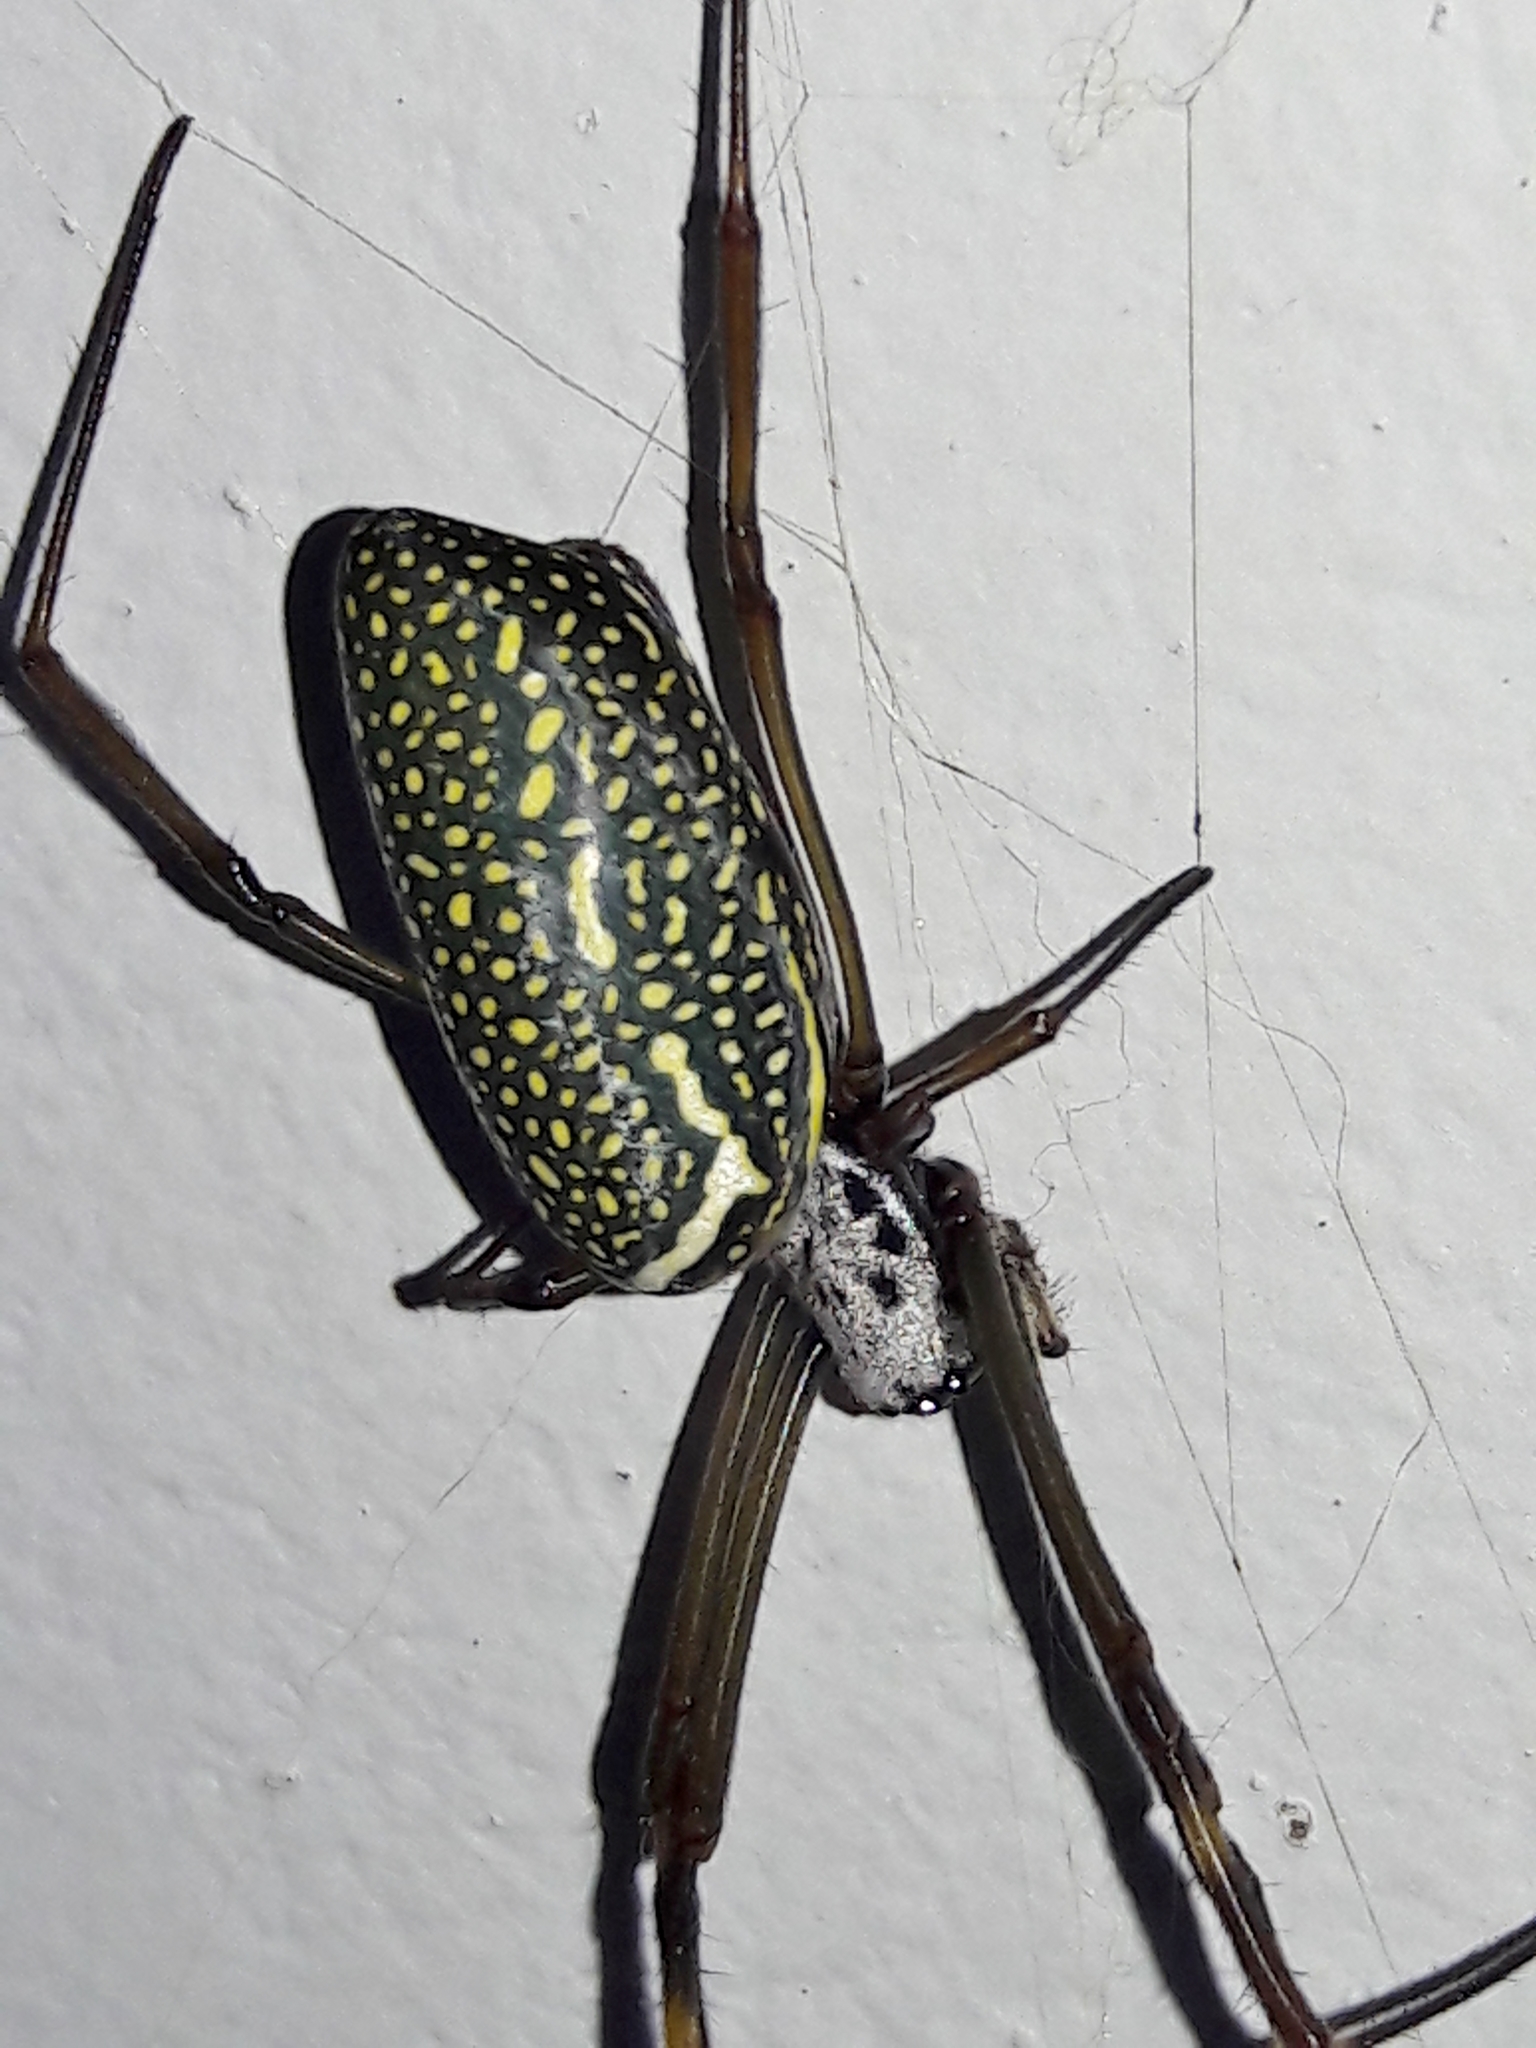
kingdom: Animalia
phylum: Arthropoda
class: Arachnida
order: Araneae
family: Araneidae
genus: Trichonephila
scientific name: Trichonephila clavipes
